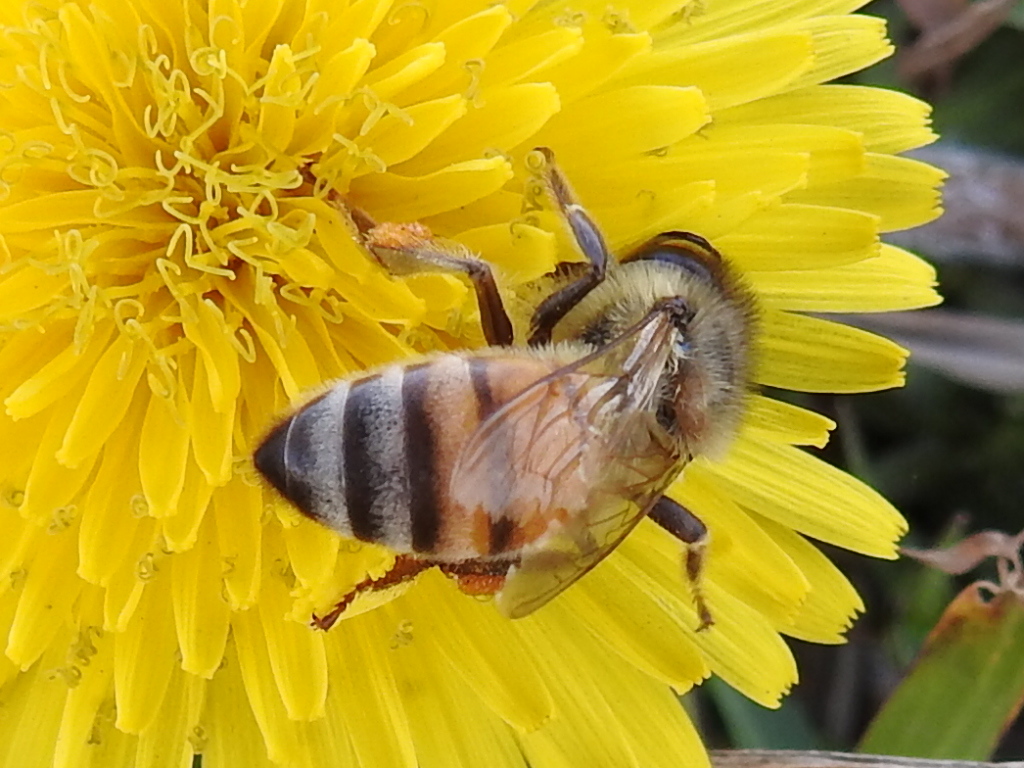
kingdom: Animalia
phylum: Arthropoda
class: Insecta
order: Hymenoptera
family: Apidae
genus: Apis
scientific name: Apis mellifera
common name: Honey bee
